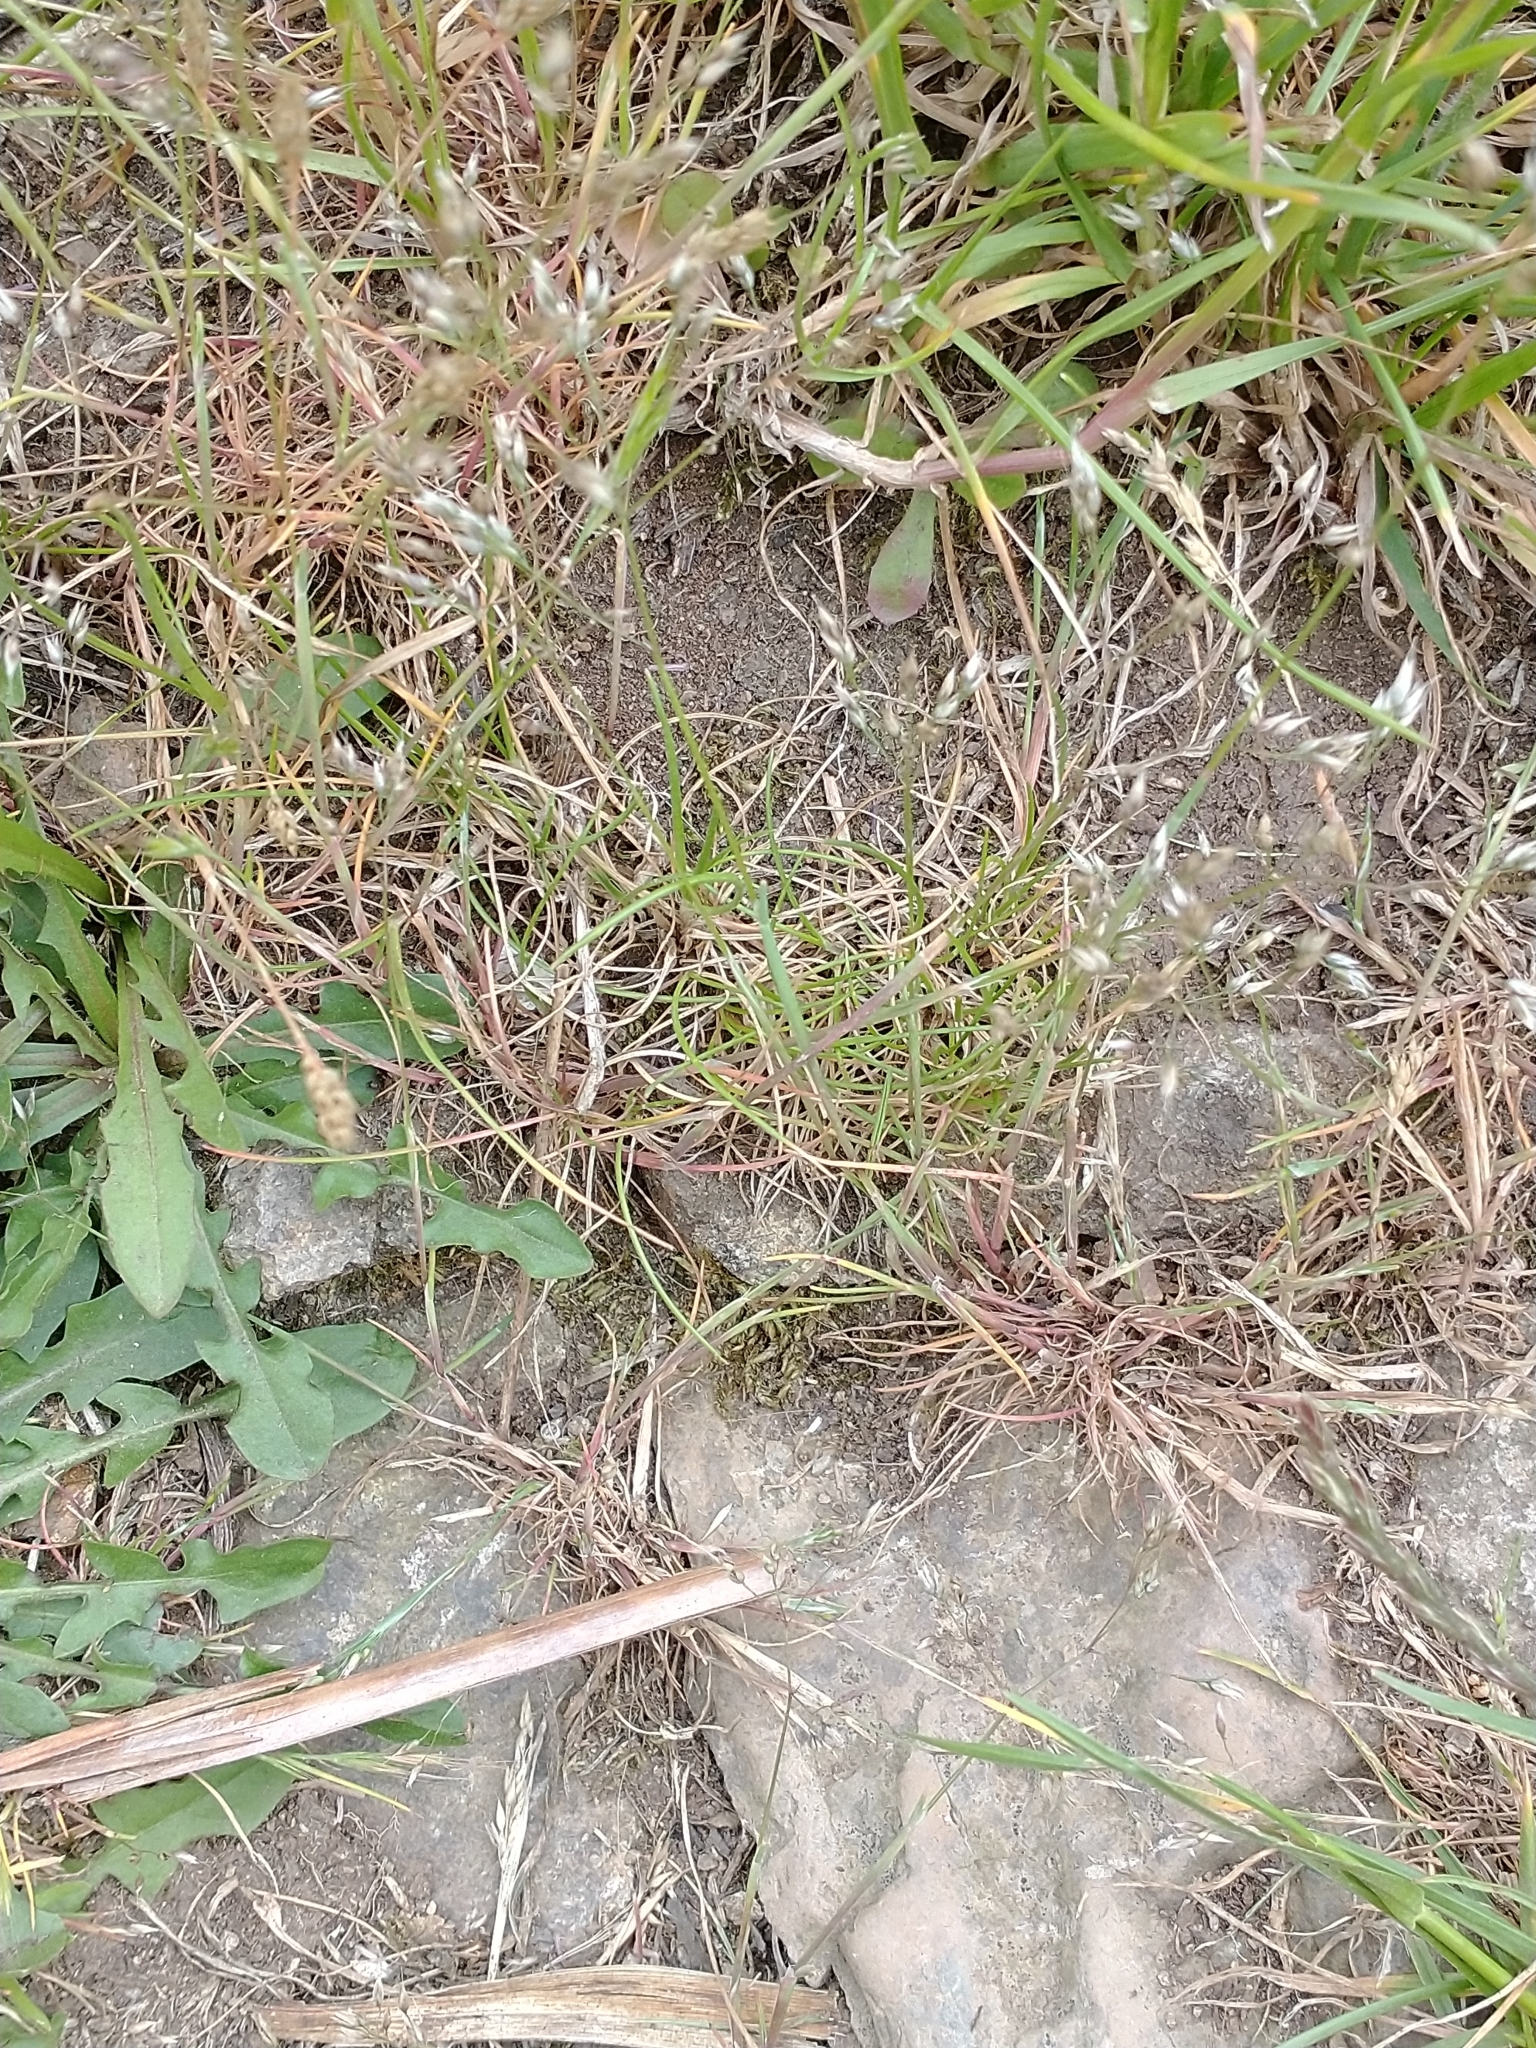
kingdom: Plantae
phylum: Tracheophyta
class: Liliopsida
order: Poales
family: Poaceae
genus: Aira
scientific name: Aira caryophyllea
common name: Silver hairgrass
